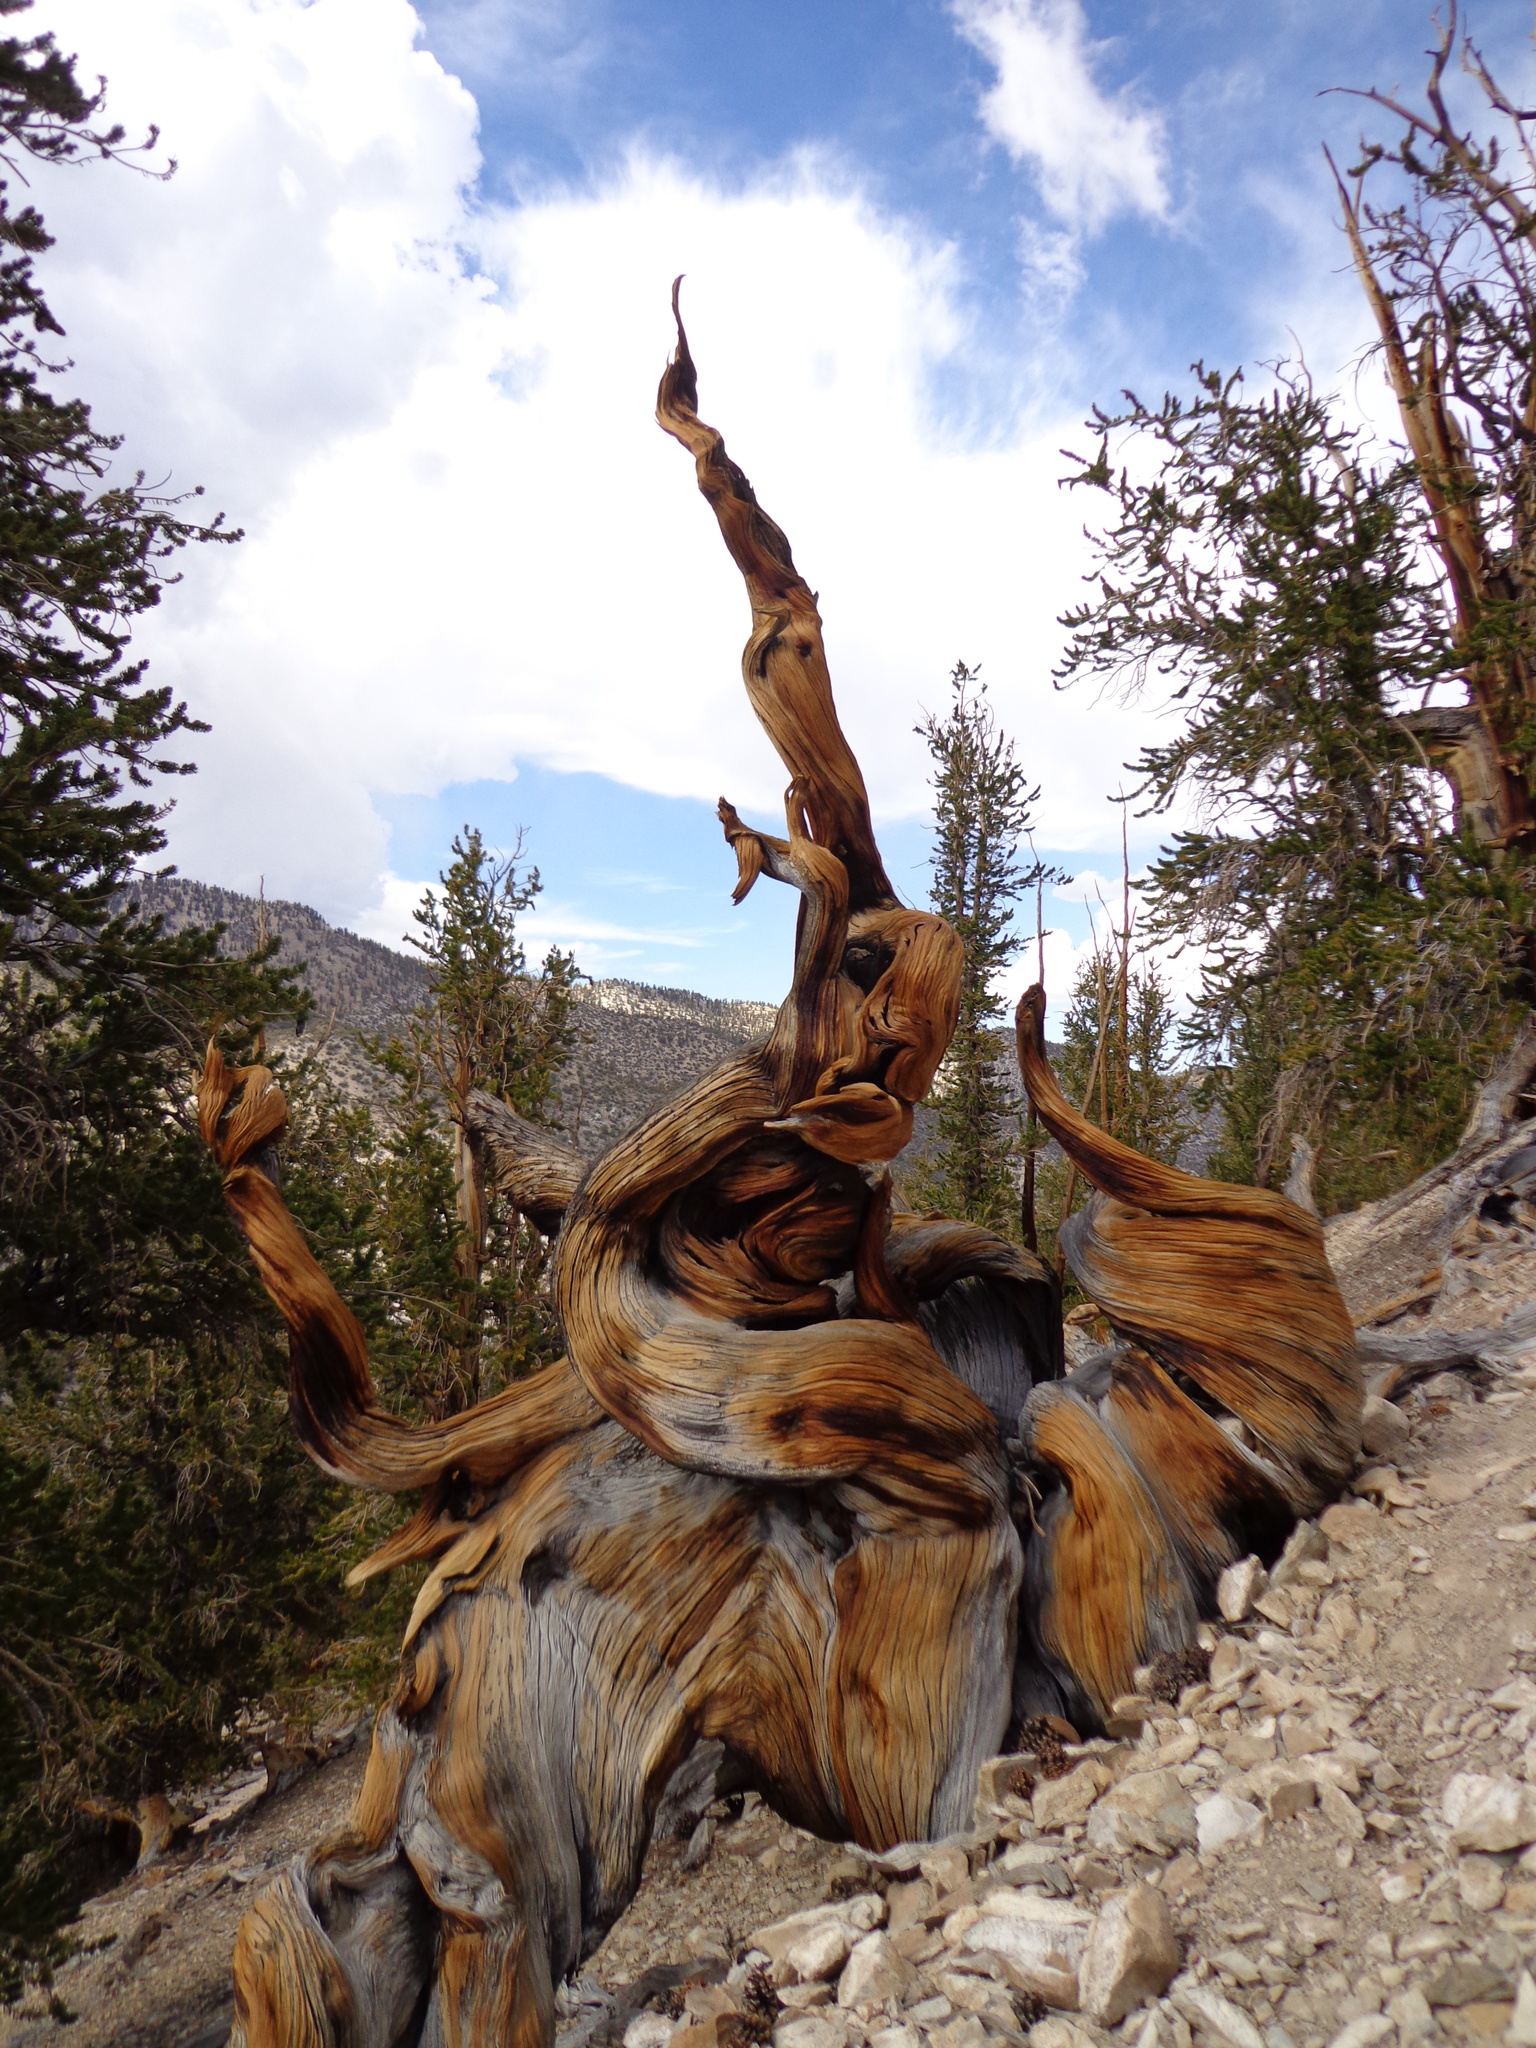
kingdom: Plantae
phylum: Tracheophyta
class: Pinopsida
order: Pinales
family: Pinaceae
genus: Pinus
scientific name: Pinus longaeva
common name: Intermountain bristlecone pine
